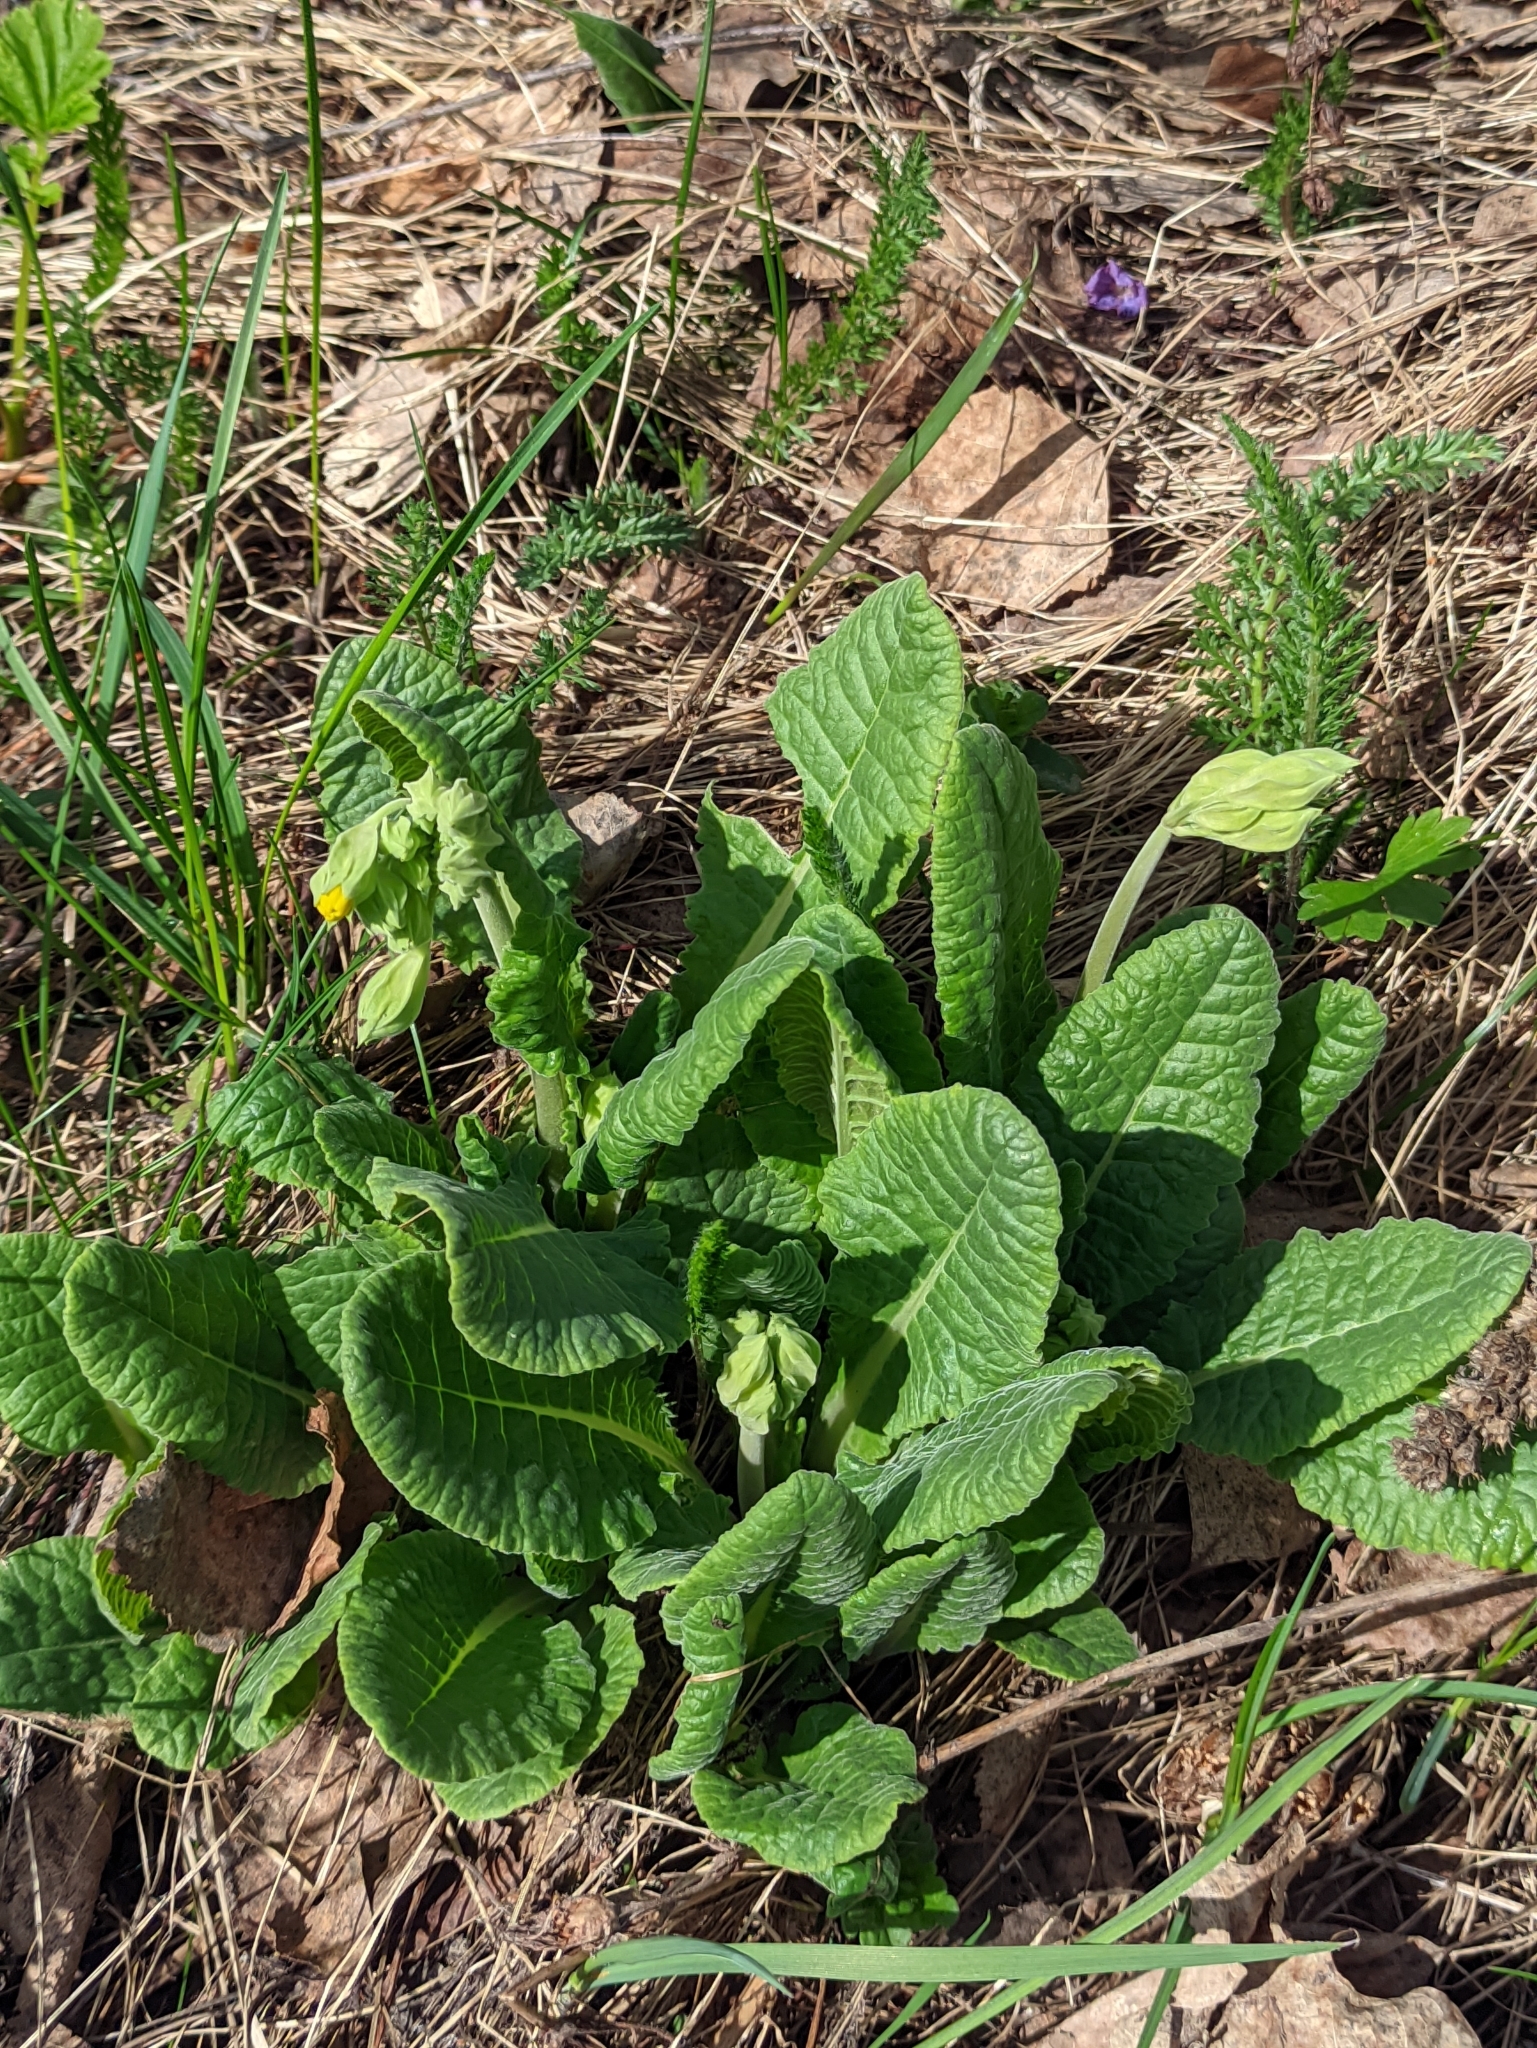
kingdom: Plantae
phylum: Tracheophyta
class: Magnoliopsida
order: Ericales
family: Primulaceae
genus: Primula
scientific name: Primula veris
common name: Cowslip
